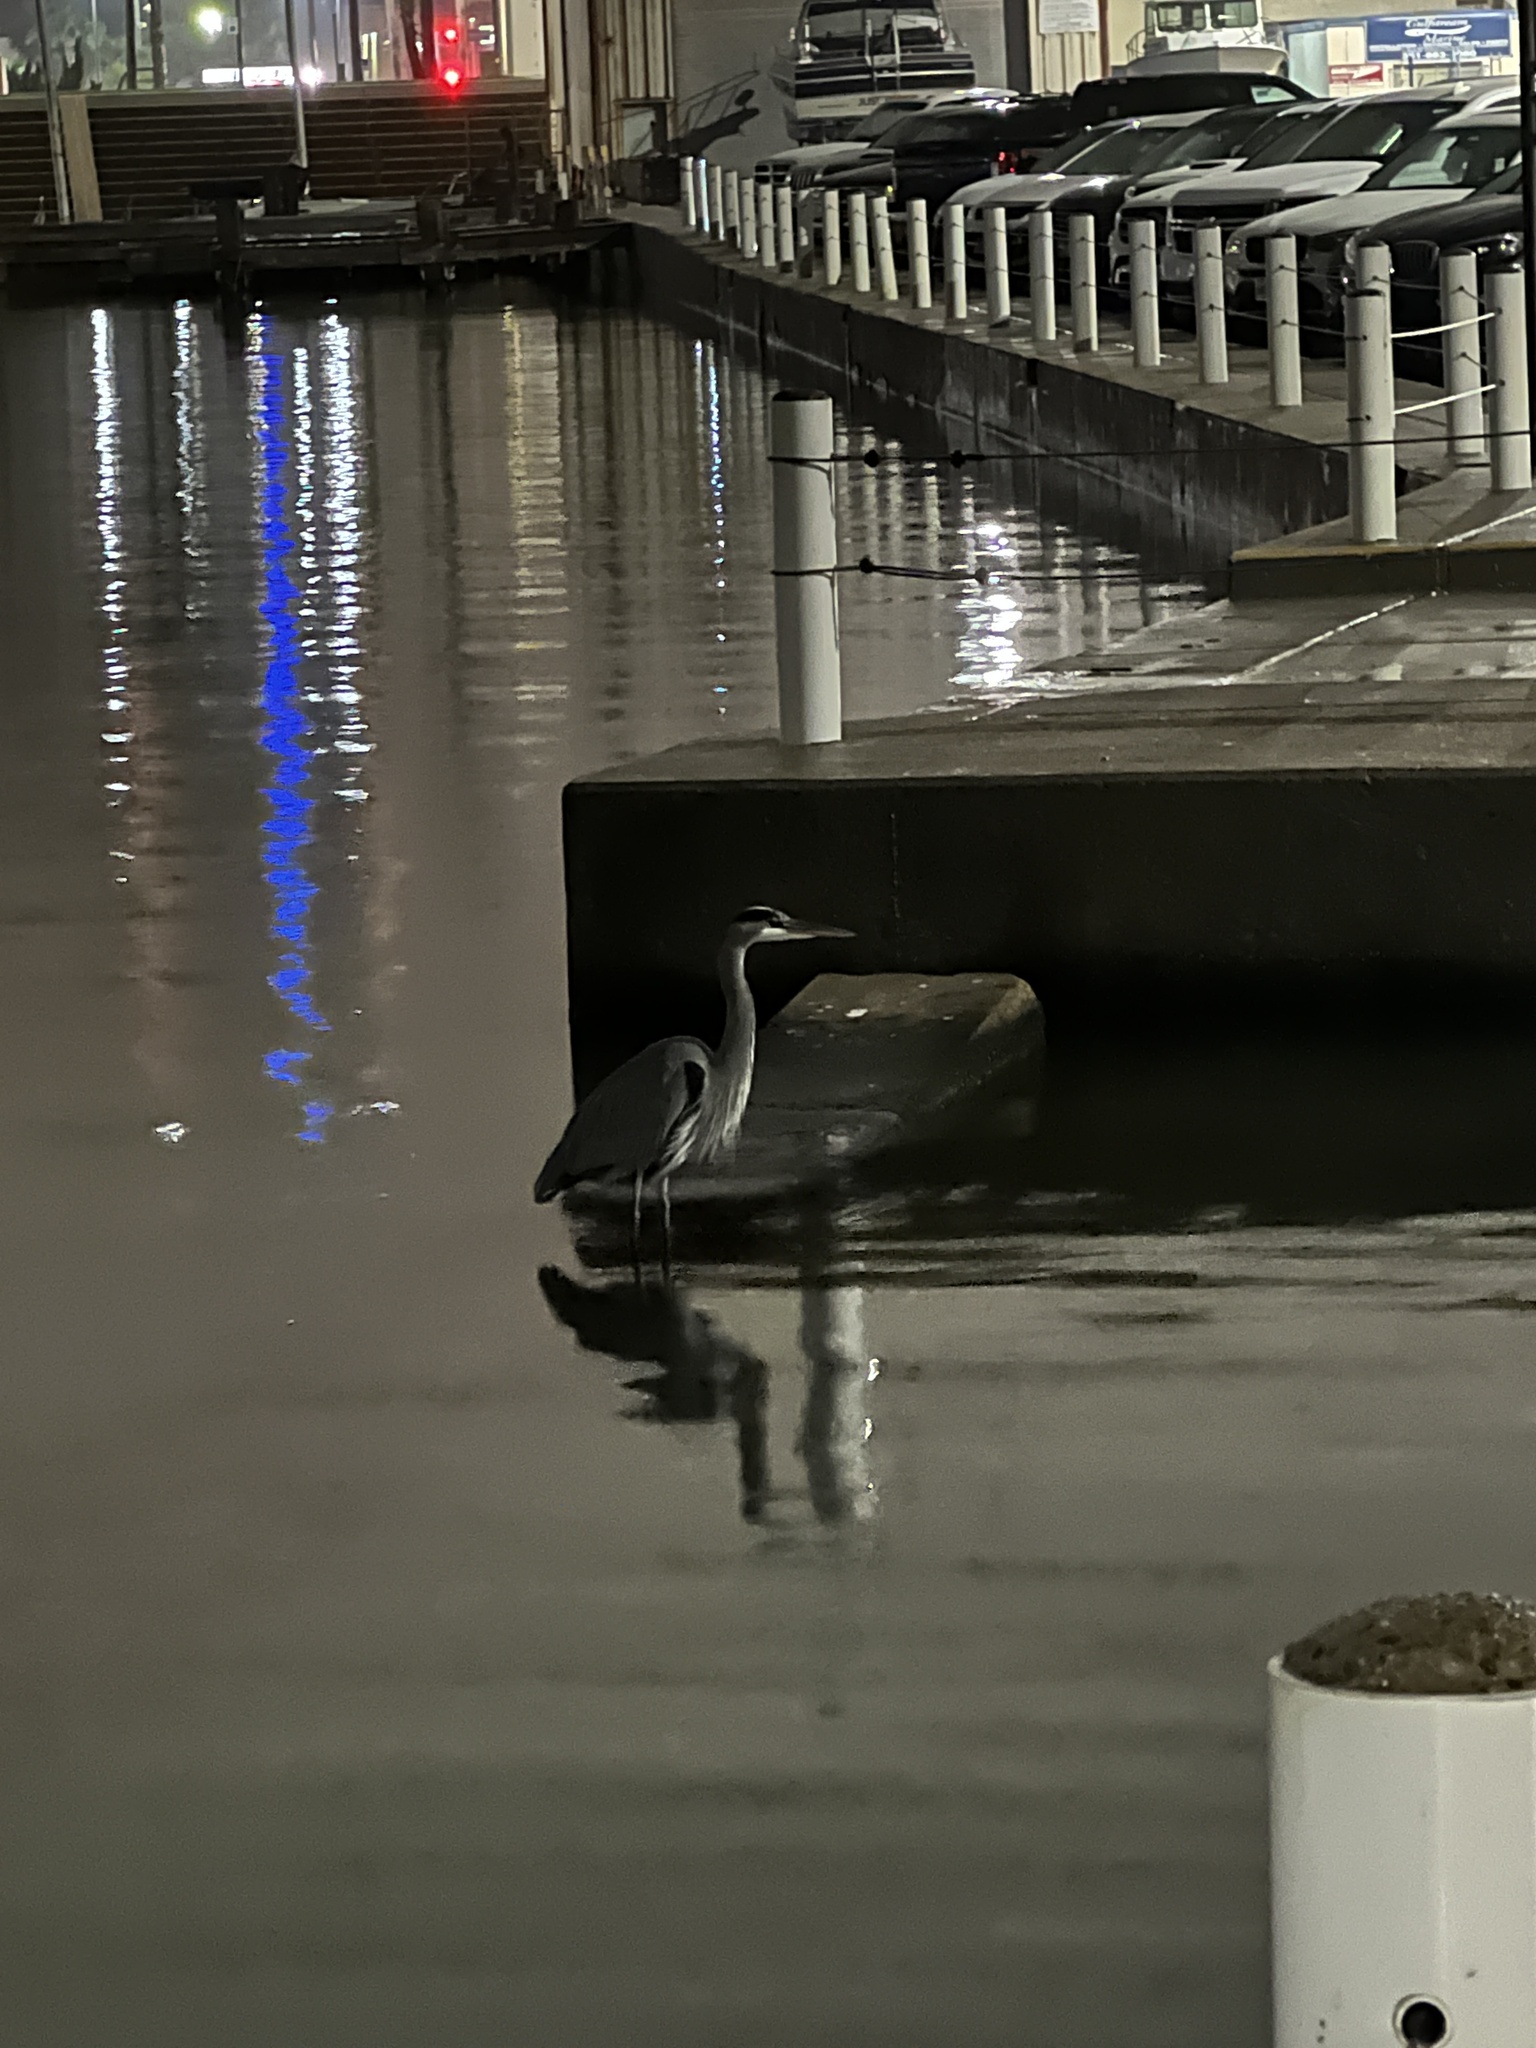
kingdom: Animalia
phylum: Chordata
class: Aves
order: Pelecaniformes
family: Ardeidae
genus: Ardea
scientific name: Ardea herodias
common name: Great blue heron
